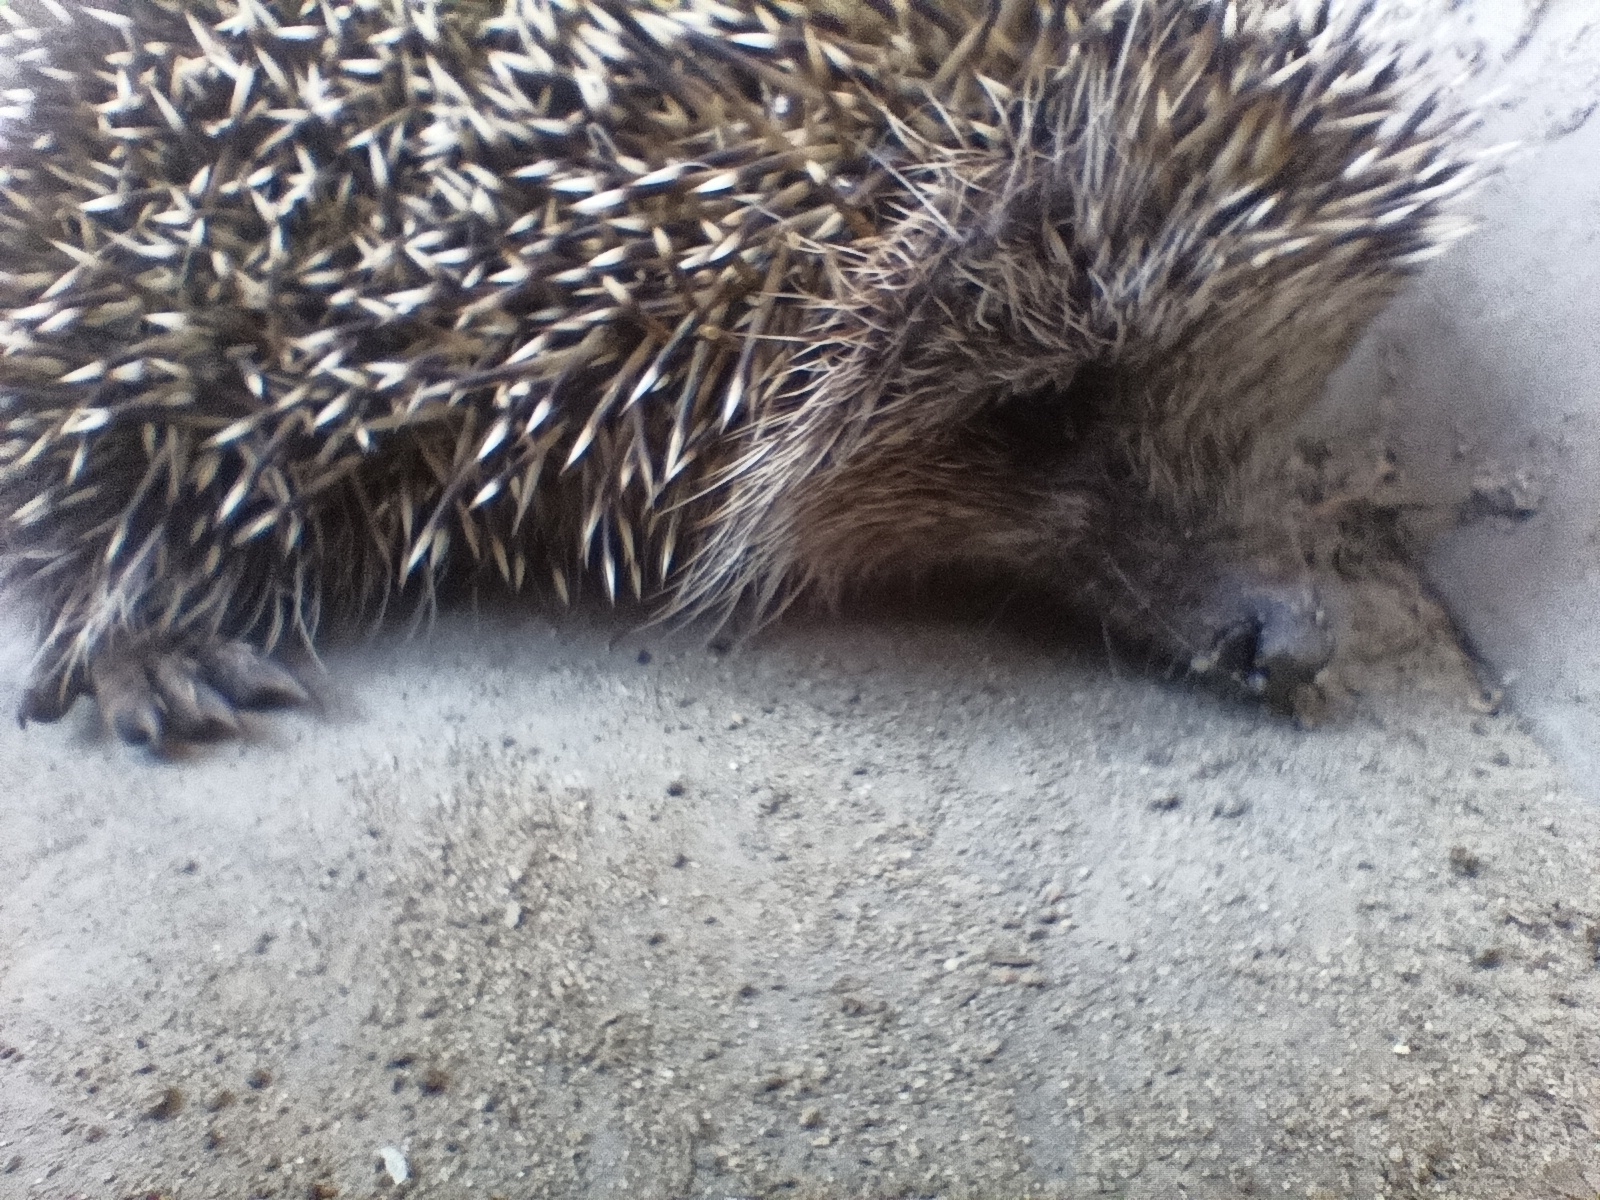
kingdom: Animalia
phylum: Chordata
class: Mammalia
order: Erinaceomorpha
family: Erinaceidae
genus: Erinaceus
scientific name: Erinaceus roumanicus
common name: Northern white-breasted hedgehog
